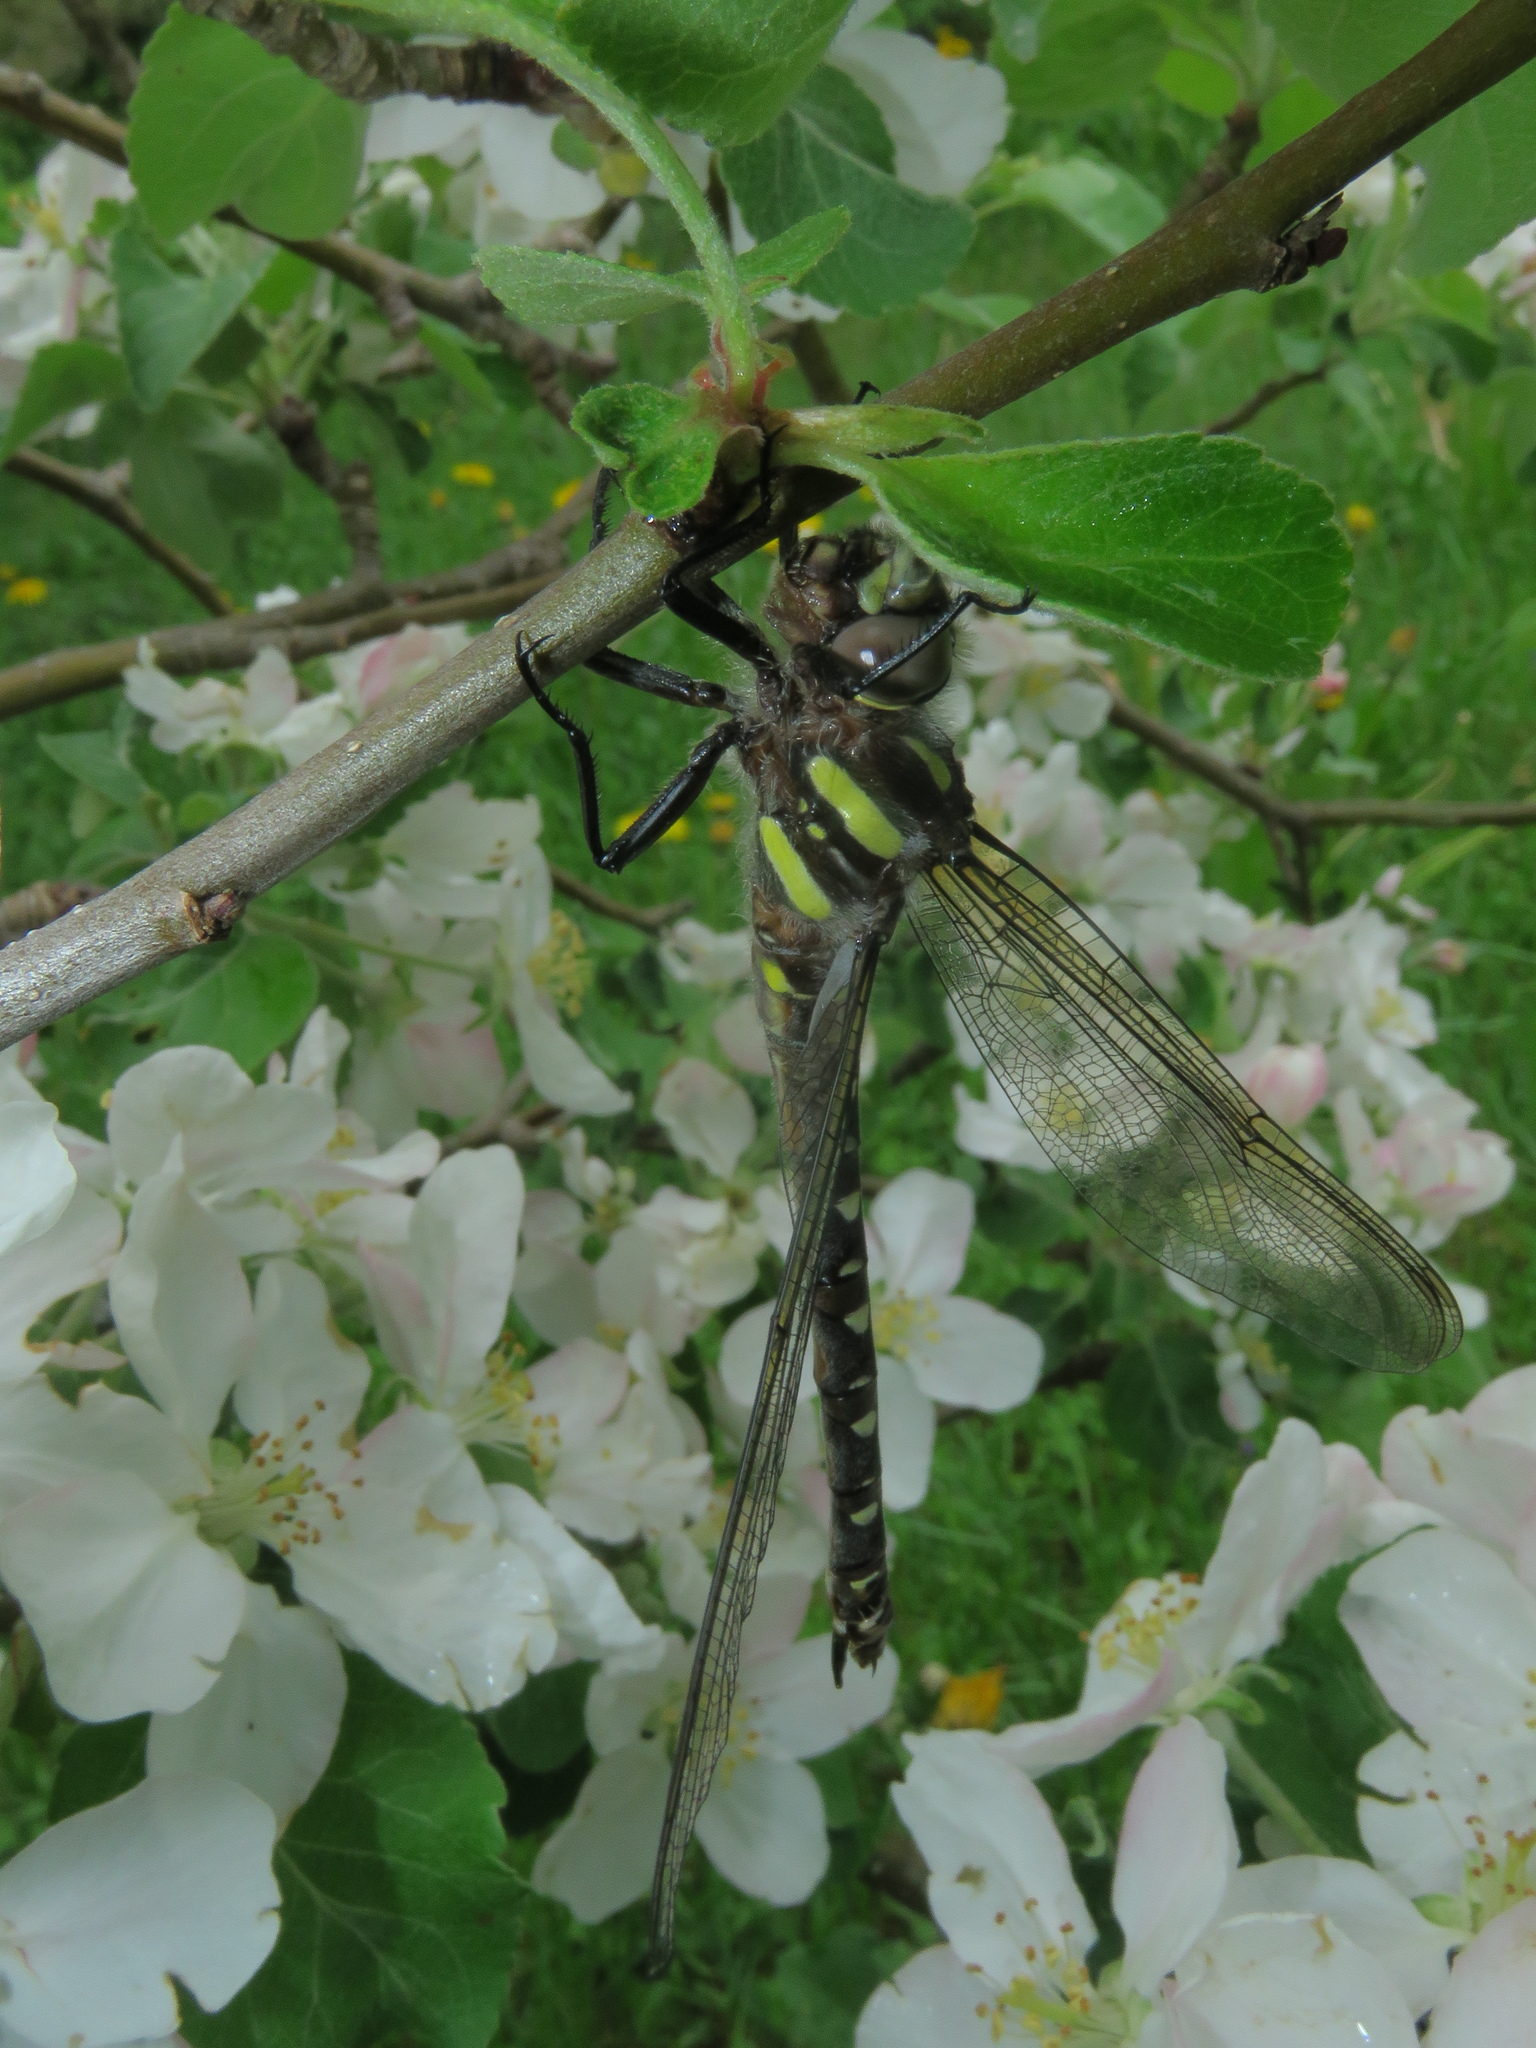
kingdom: Animalia
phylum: Arthropoda
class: Insecta
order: Odonata
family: Cordulegastridae
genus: Cordulegaster
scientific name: Cordulegaster maculata
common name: Twin-spotted spiketail
